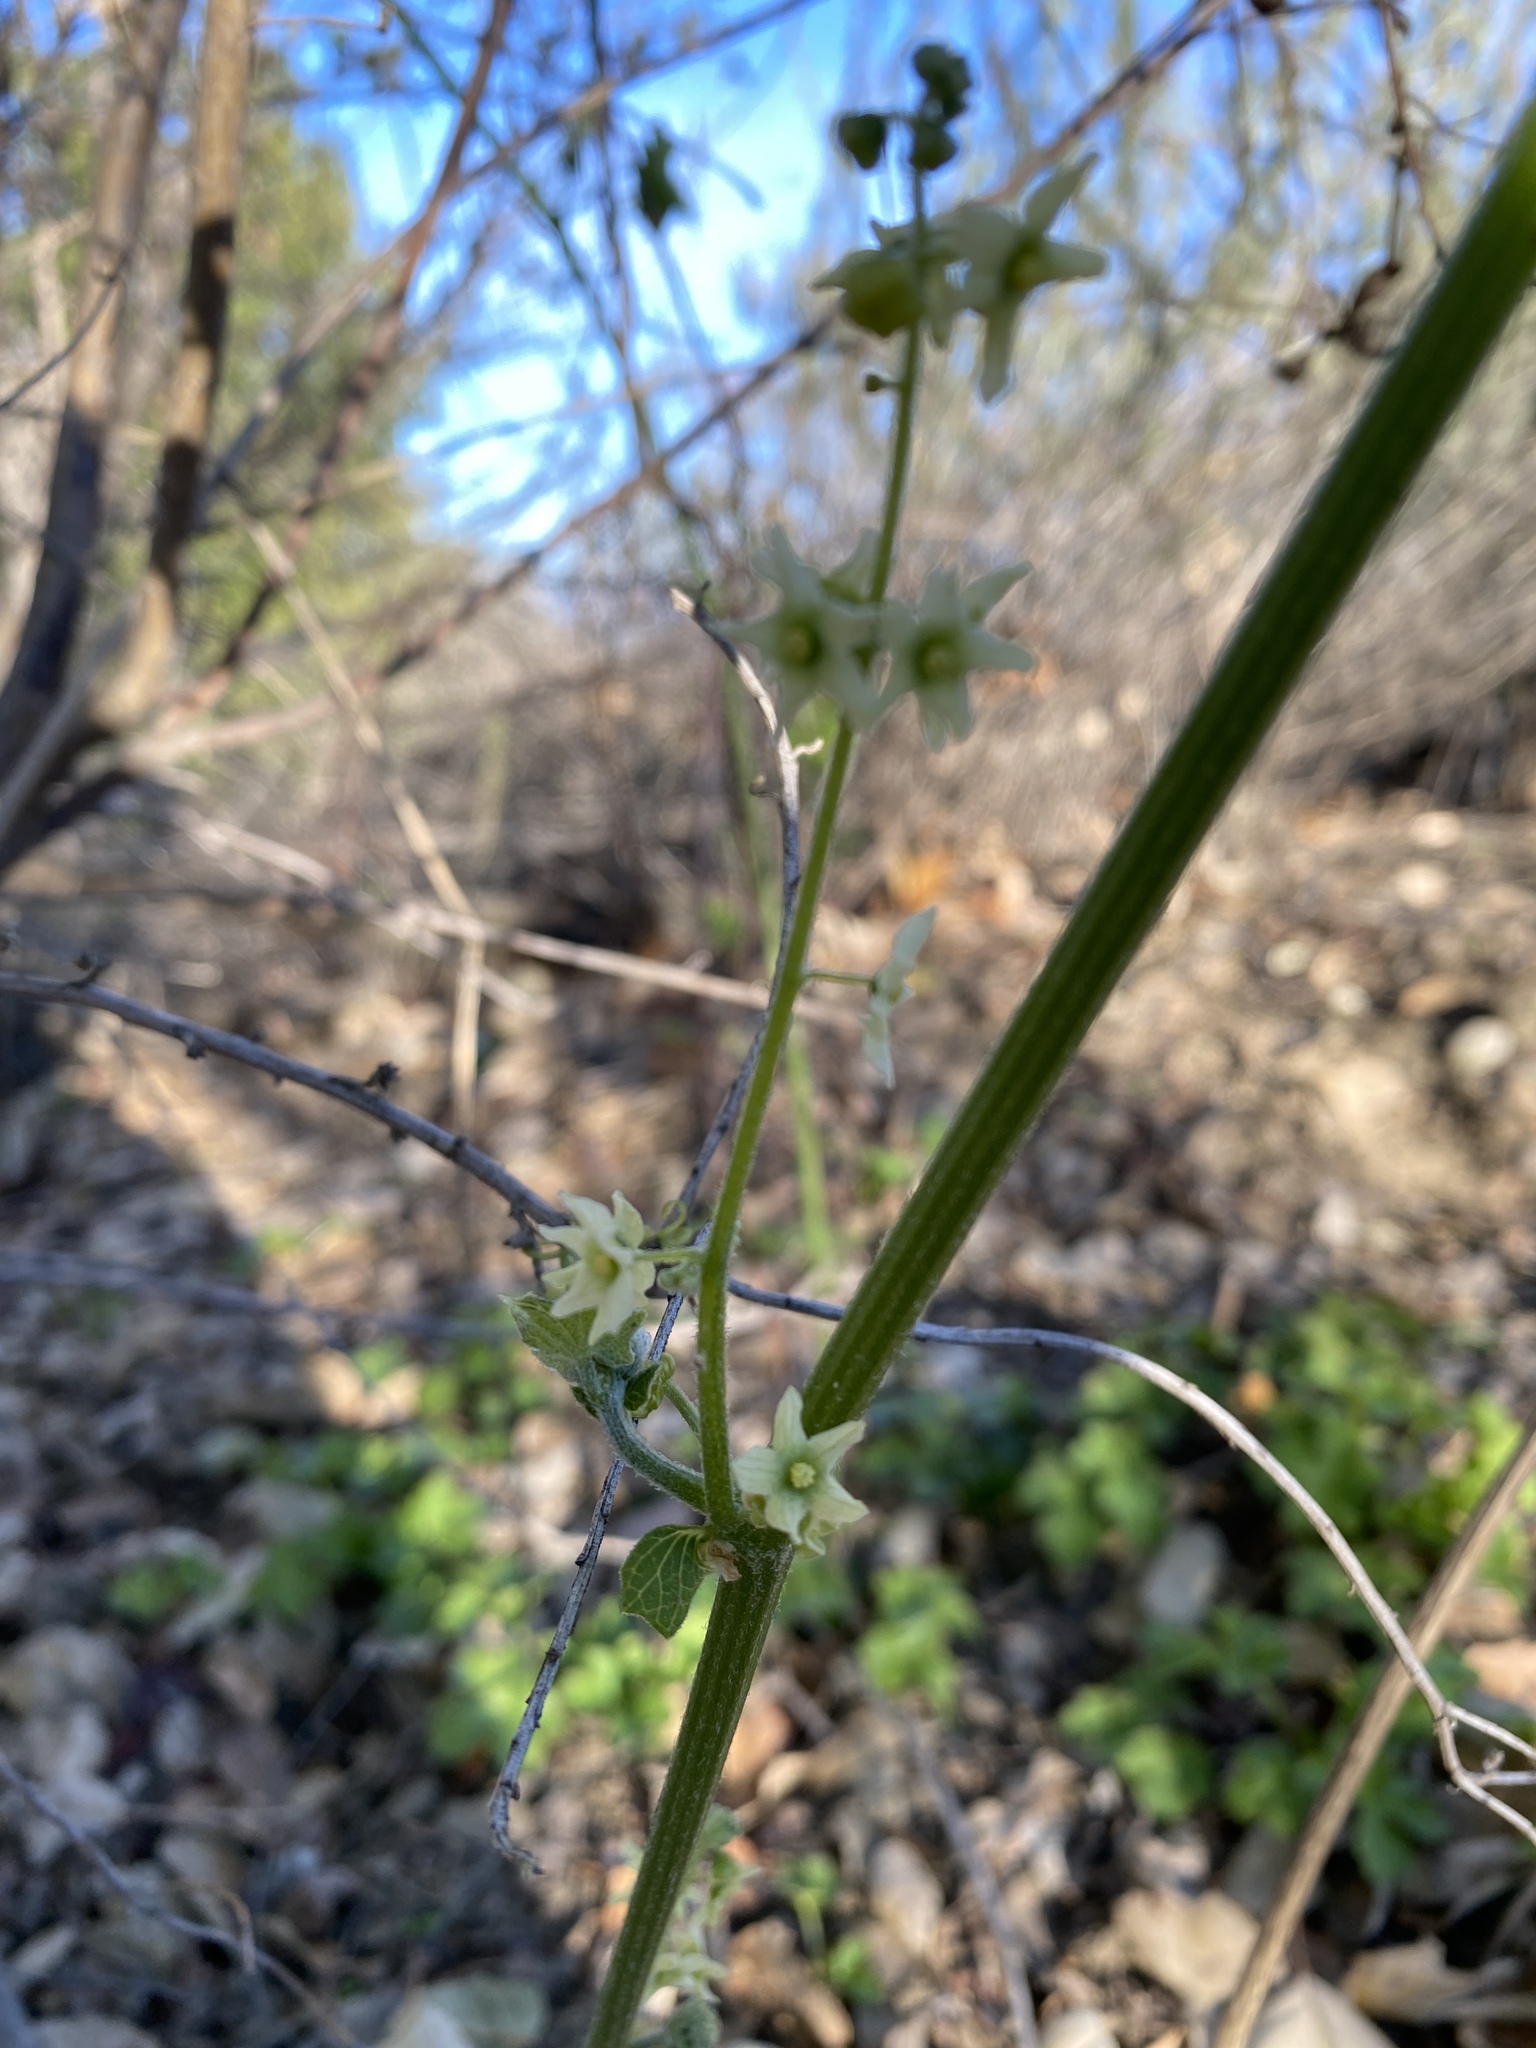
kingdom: Plantae
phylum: Tracheophyta
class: Magnoliopsida
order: Cucurbitales
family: Cucurbitaceae
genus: Marah
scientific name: Marah fabacea
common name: California manroot
